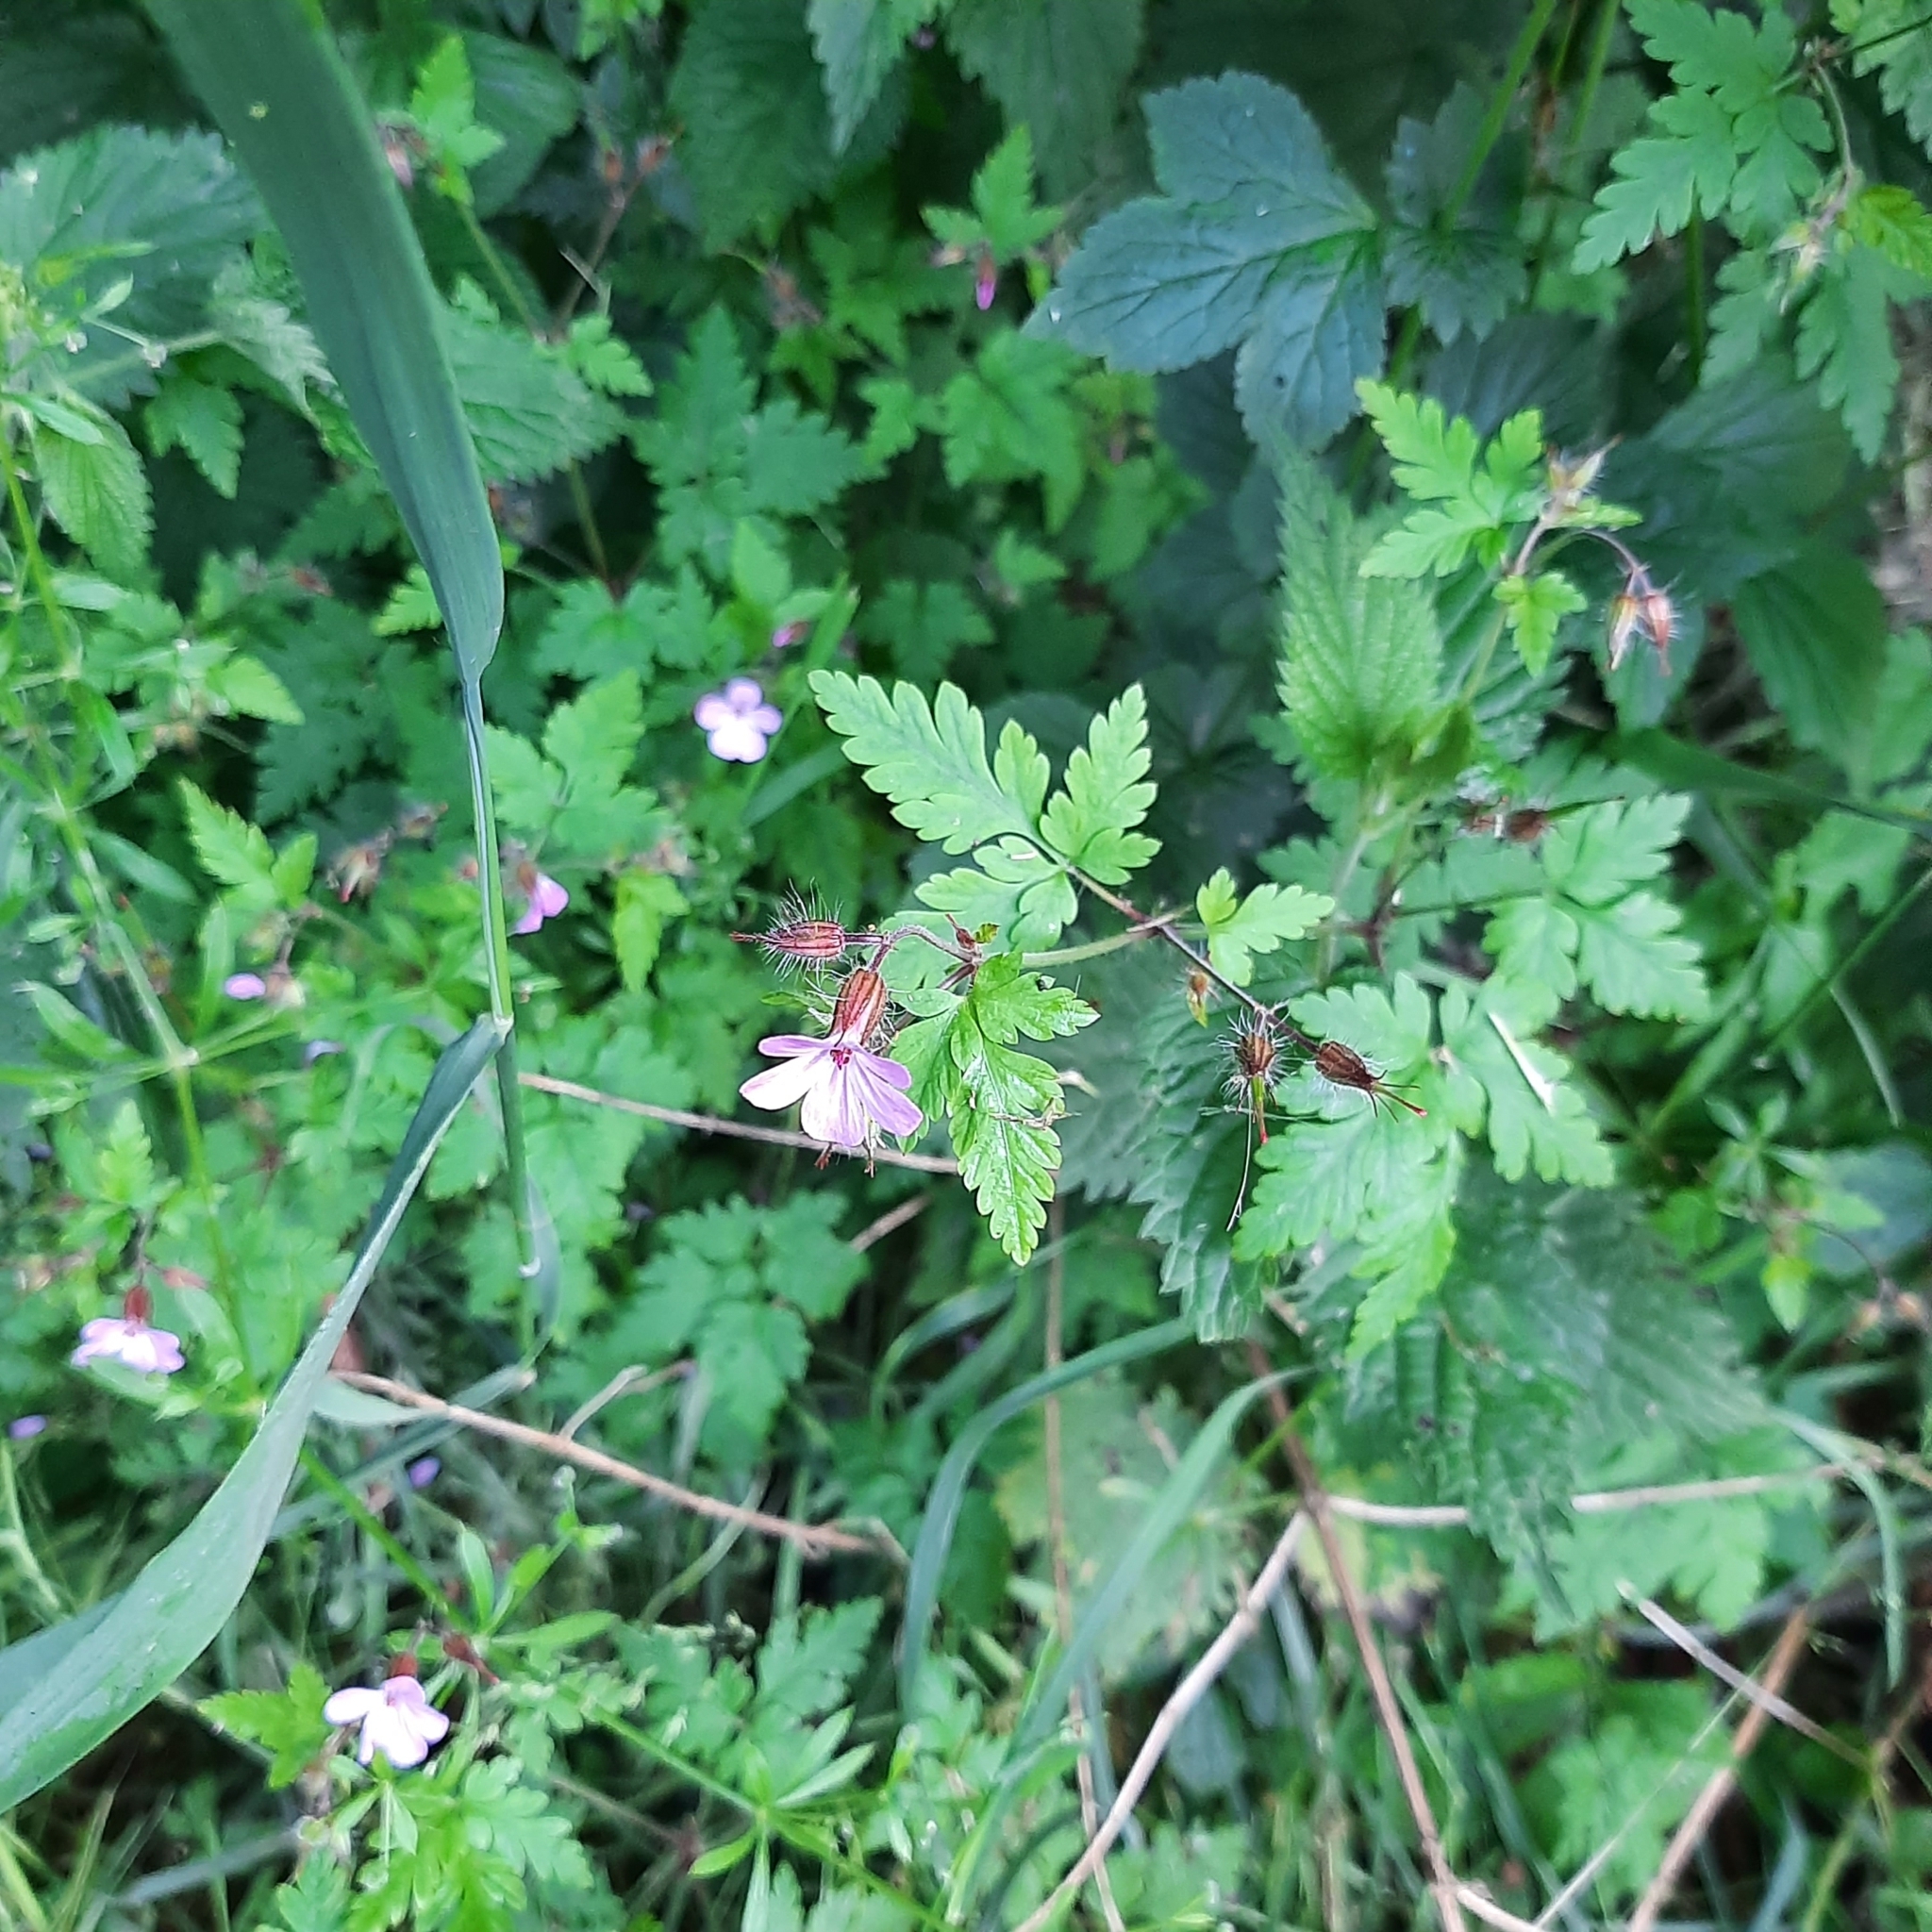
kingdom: Plantae
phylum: Tracheophyta
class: Magnoliopsida
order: Geraniales
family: Geraniaceae
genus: Geranium
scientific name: Geranium robertianum
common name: Herb-robert
